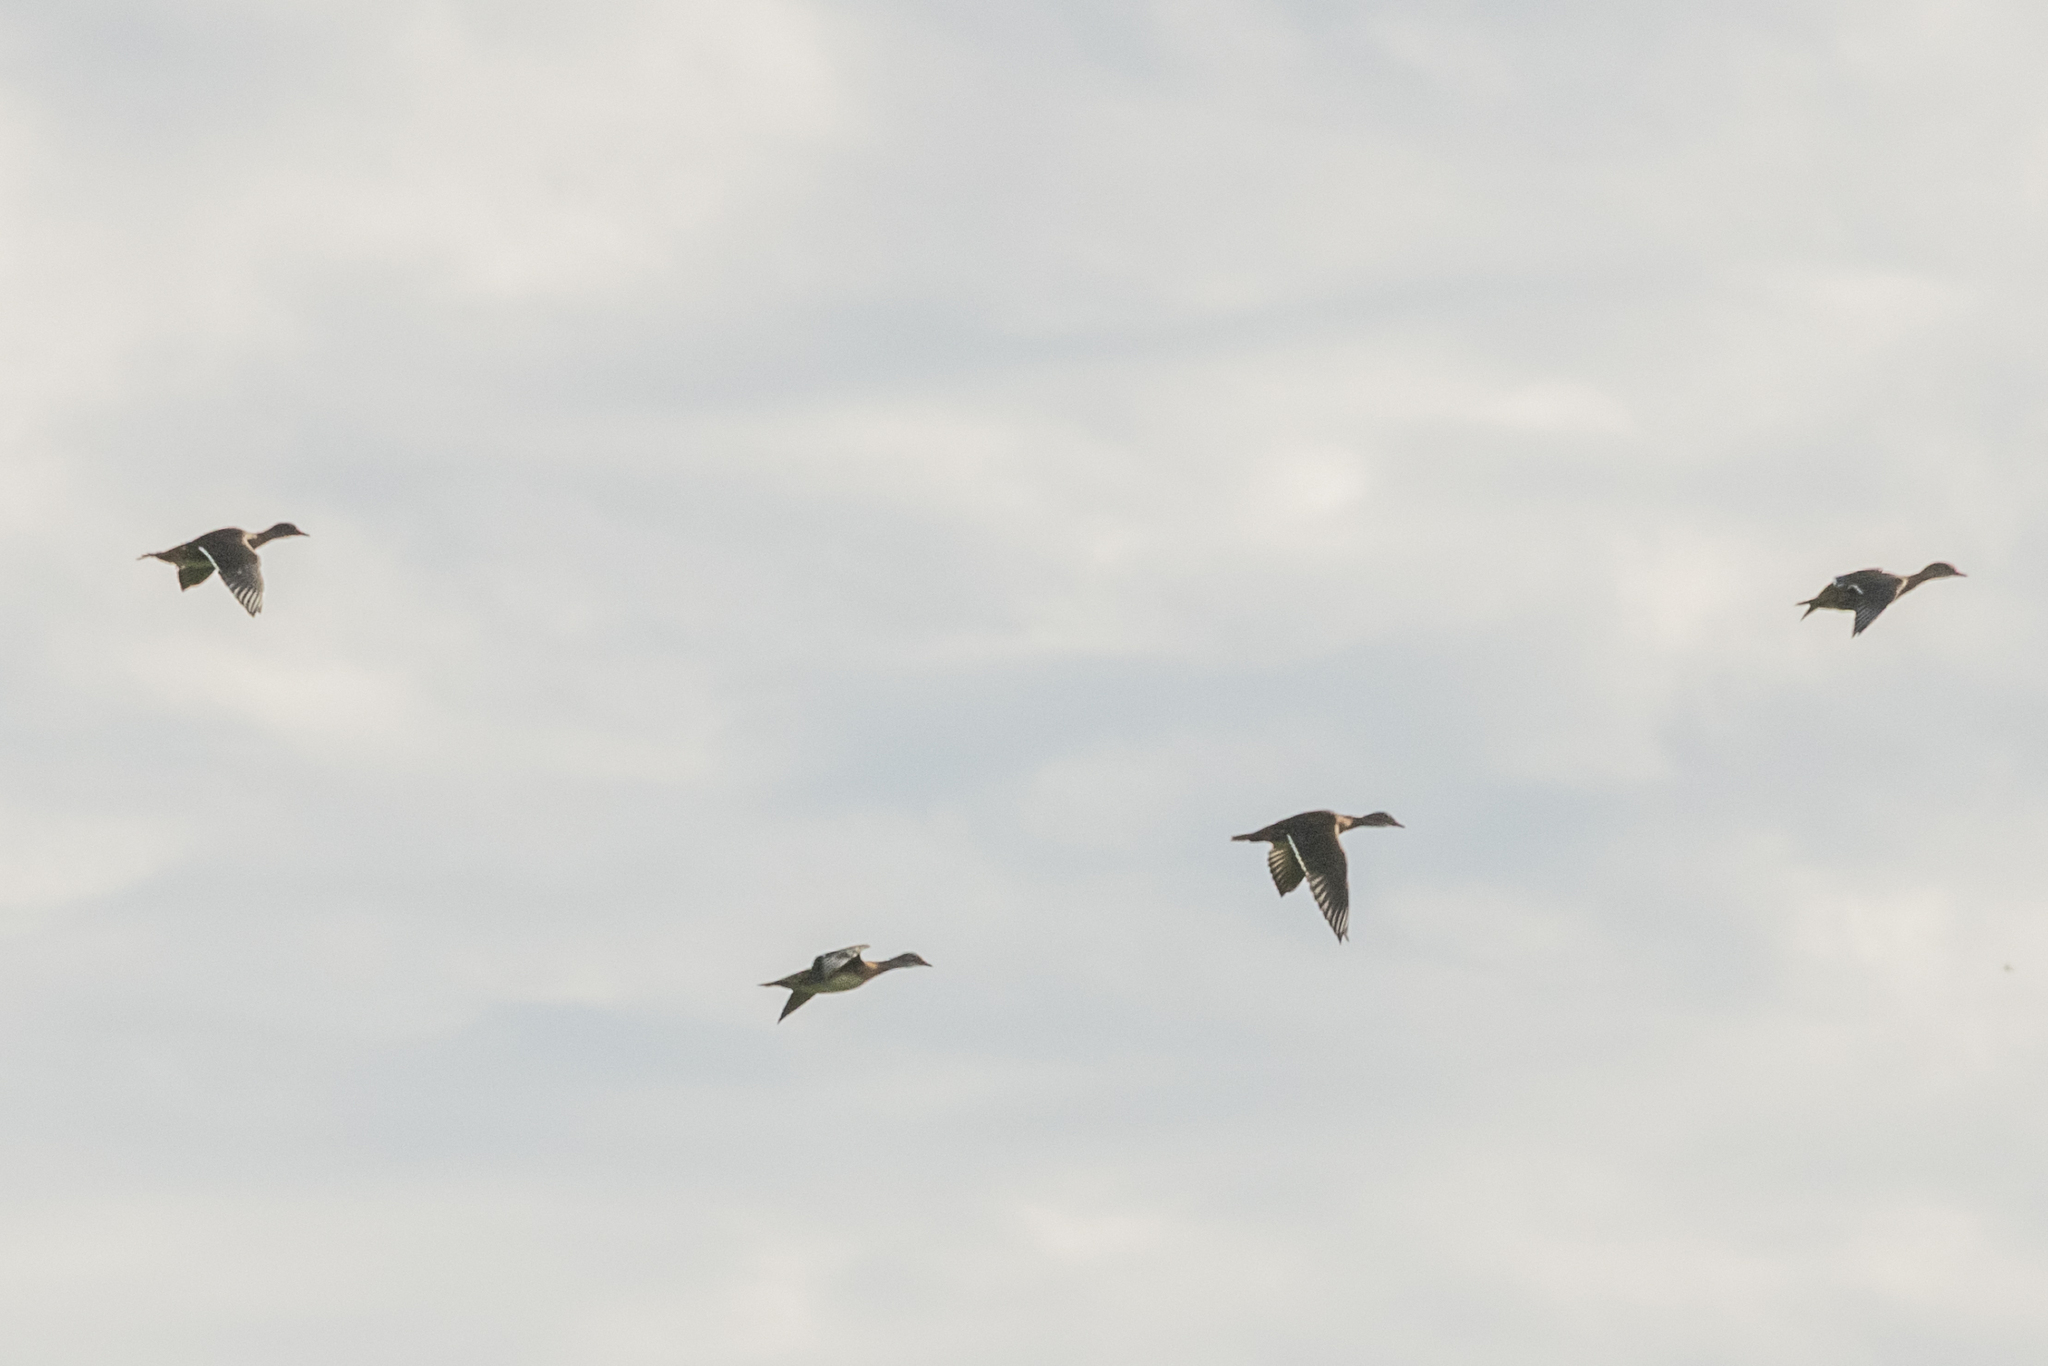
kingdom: Animalia
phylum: Chordata
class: Aves
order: Anseriformes
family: Anatidae
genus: Aix
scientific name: Aix galericulata
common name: Mandarin duck
